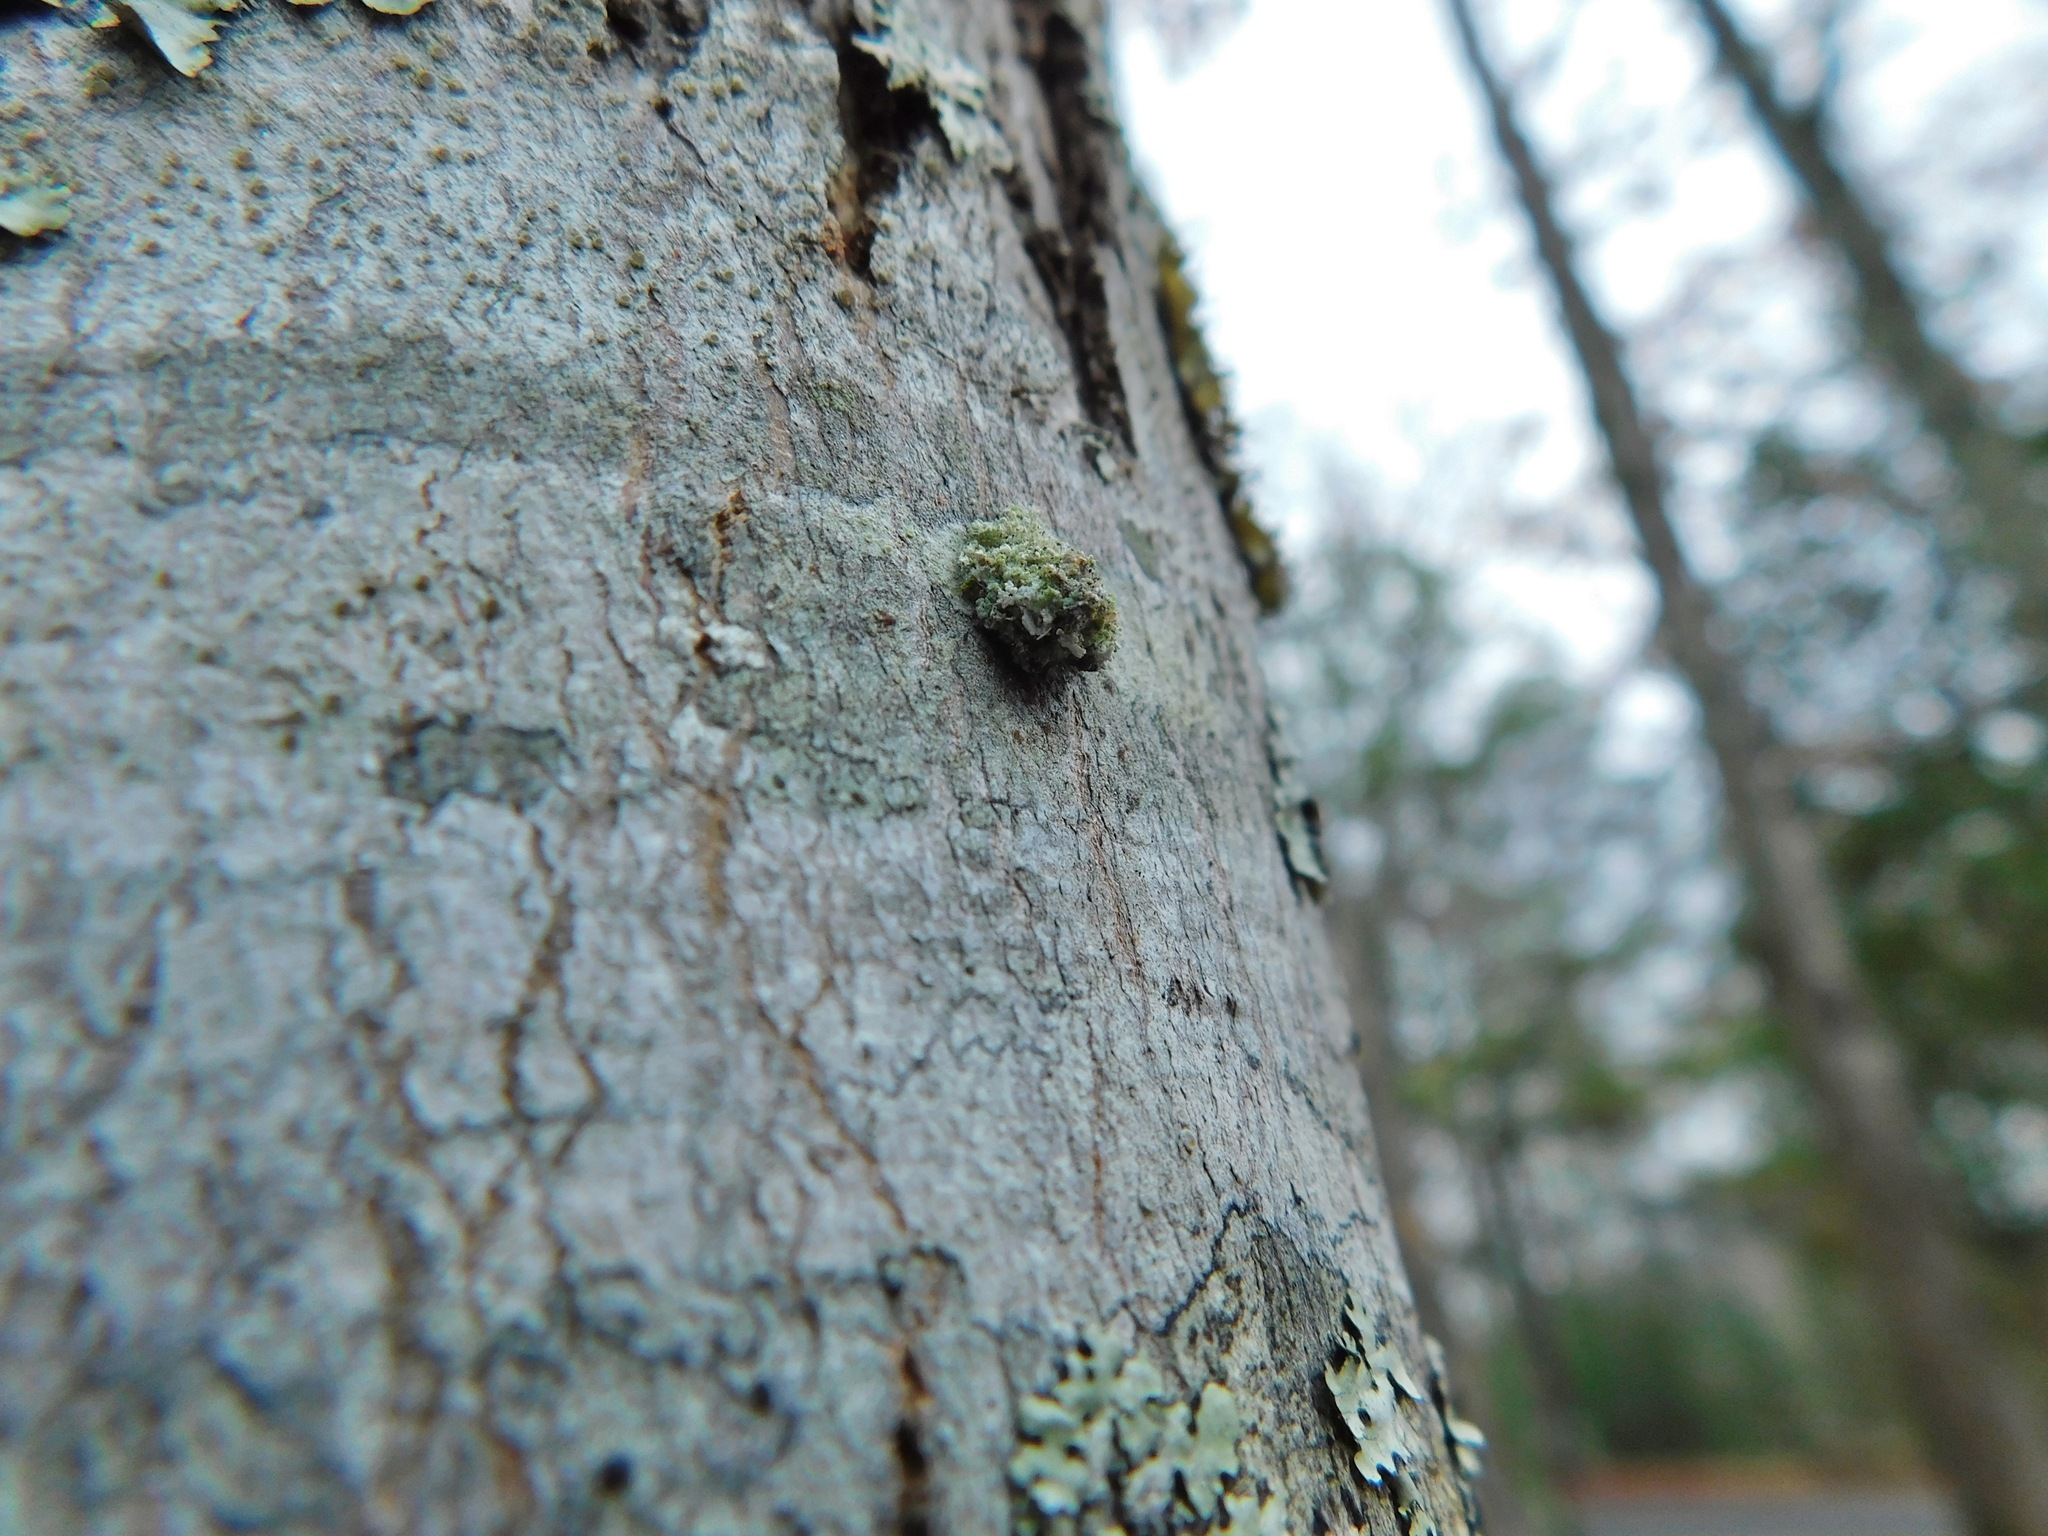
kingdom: Animalia
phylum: Arthropoda
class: Insecta
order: Neuroptera
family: Chrysopidae
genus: Leucochrysa
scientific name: Leucochrysa pavida
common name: Lichen-carrying green lacewing
